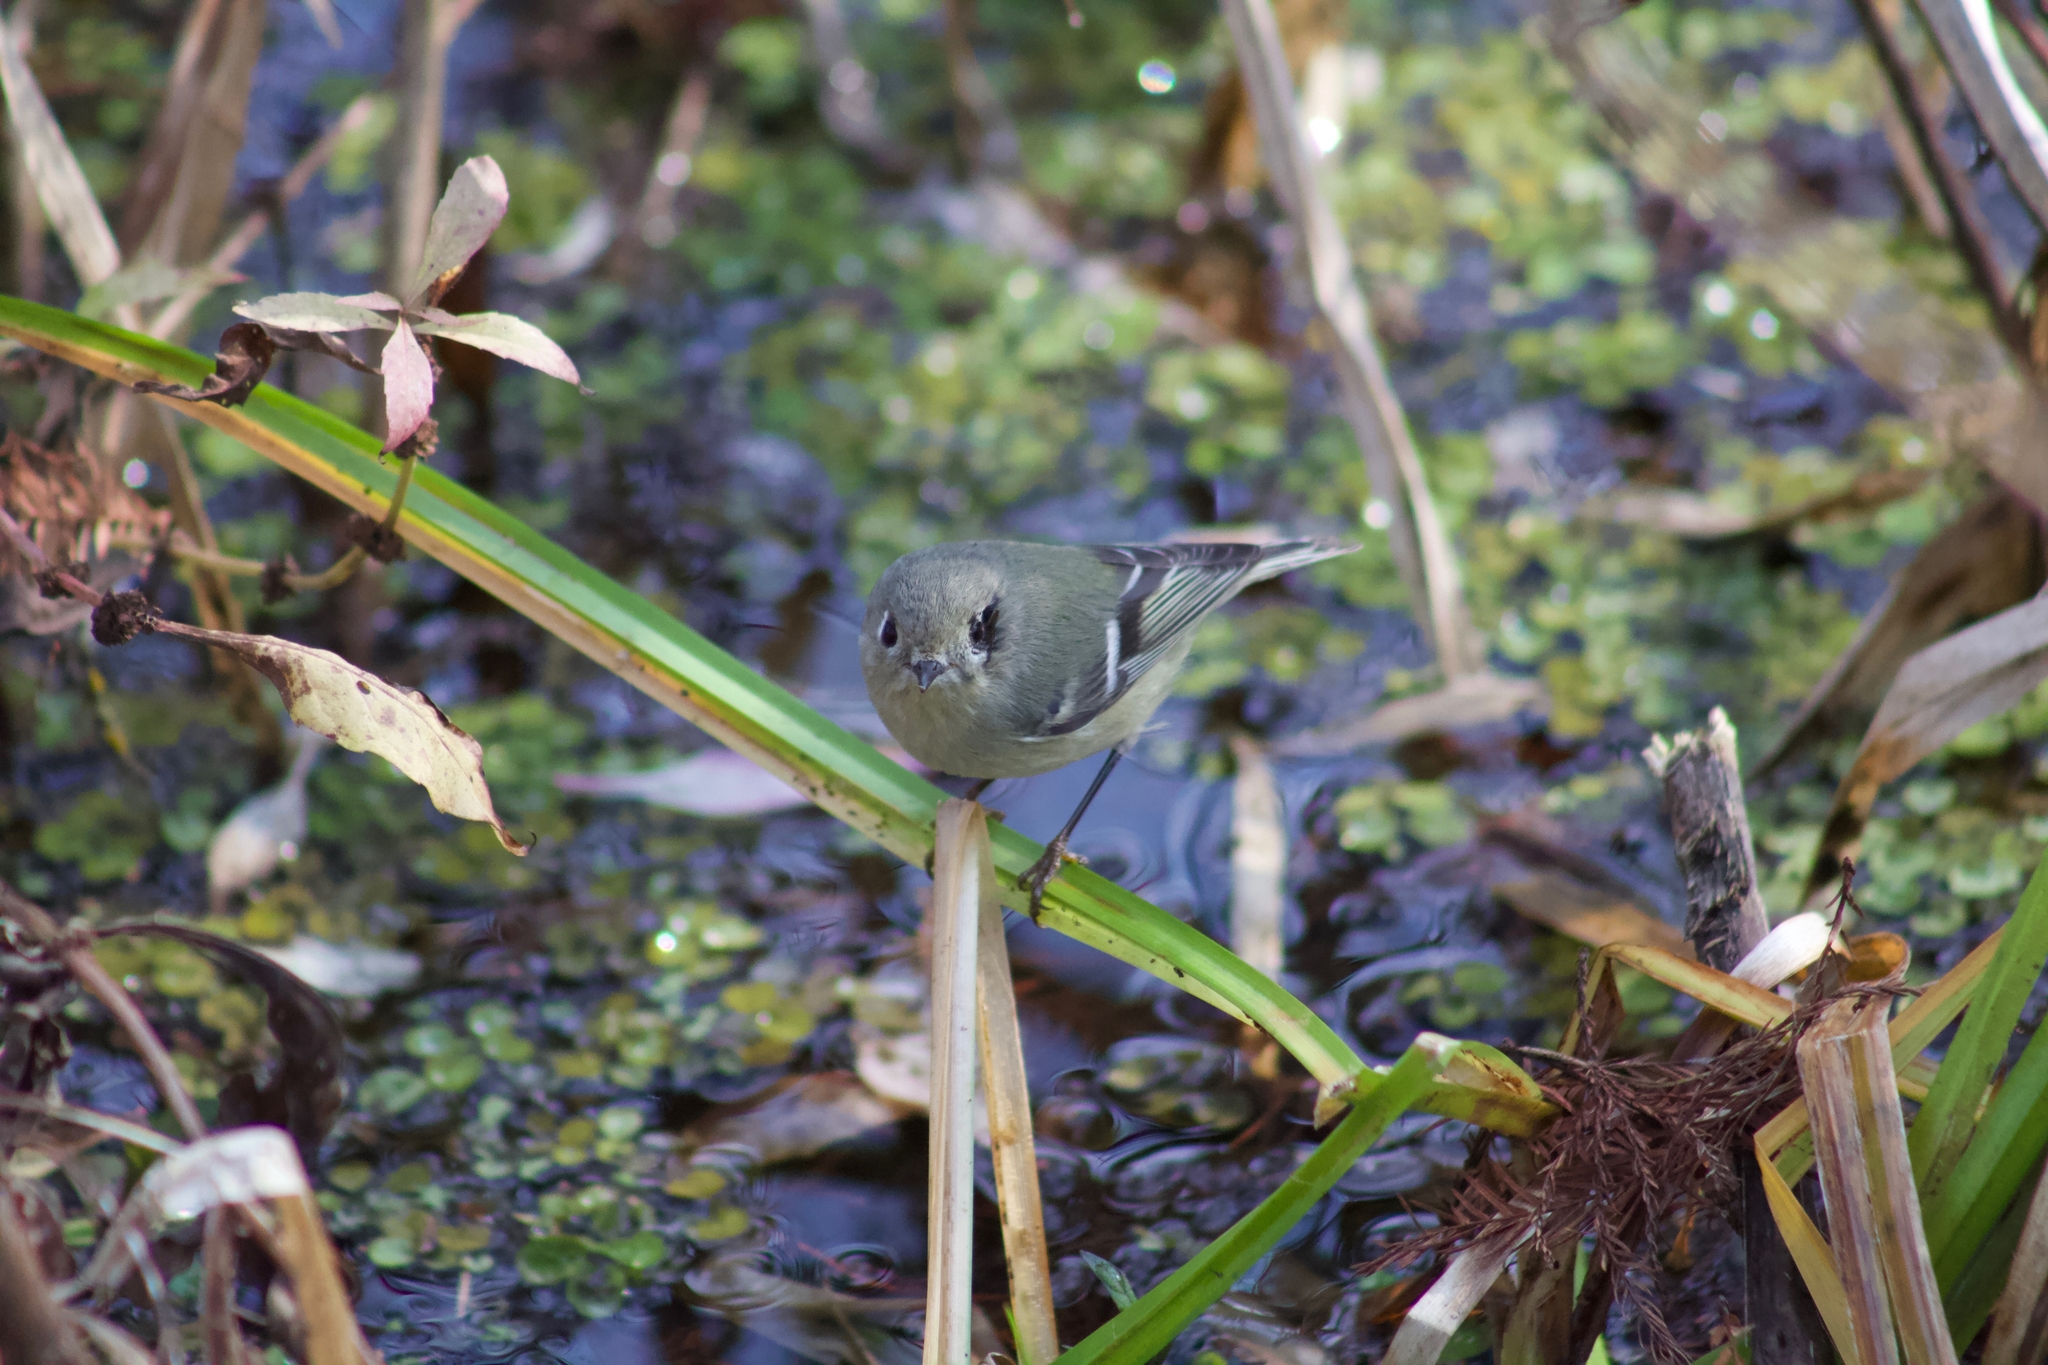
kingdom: Animalia
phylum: Chordata
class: Aves
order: Passeriformes
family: Regulidae
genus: Regulus
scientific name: Regulus calendula
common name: Ruby-crowned kinglet
